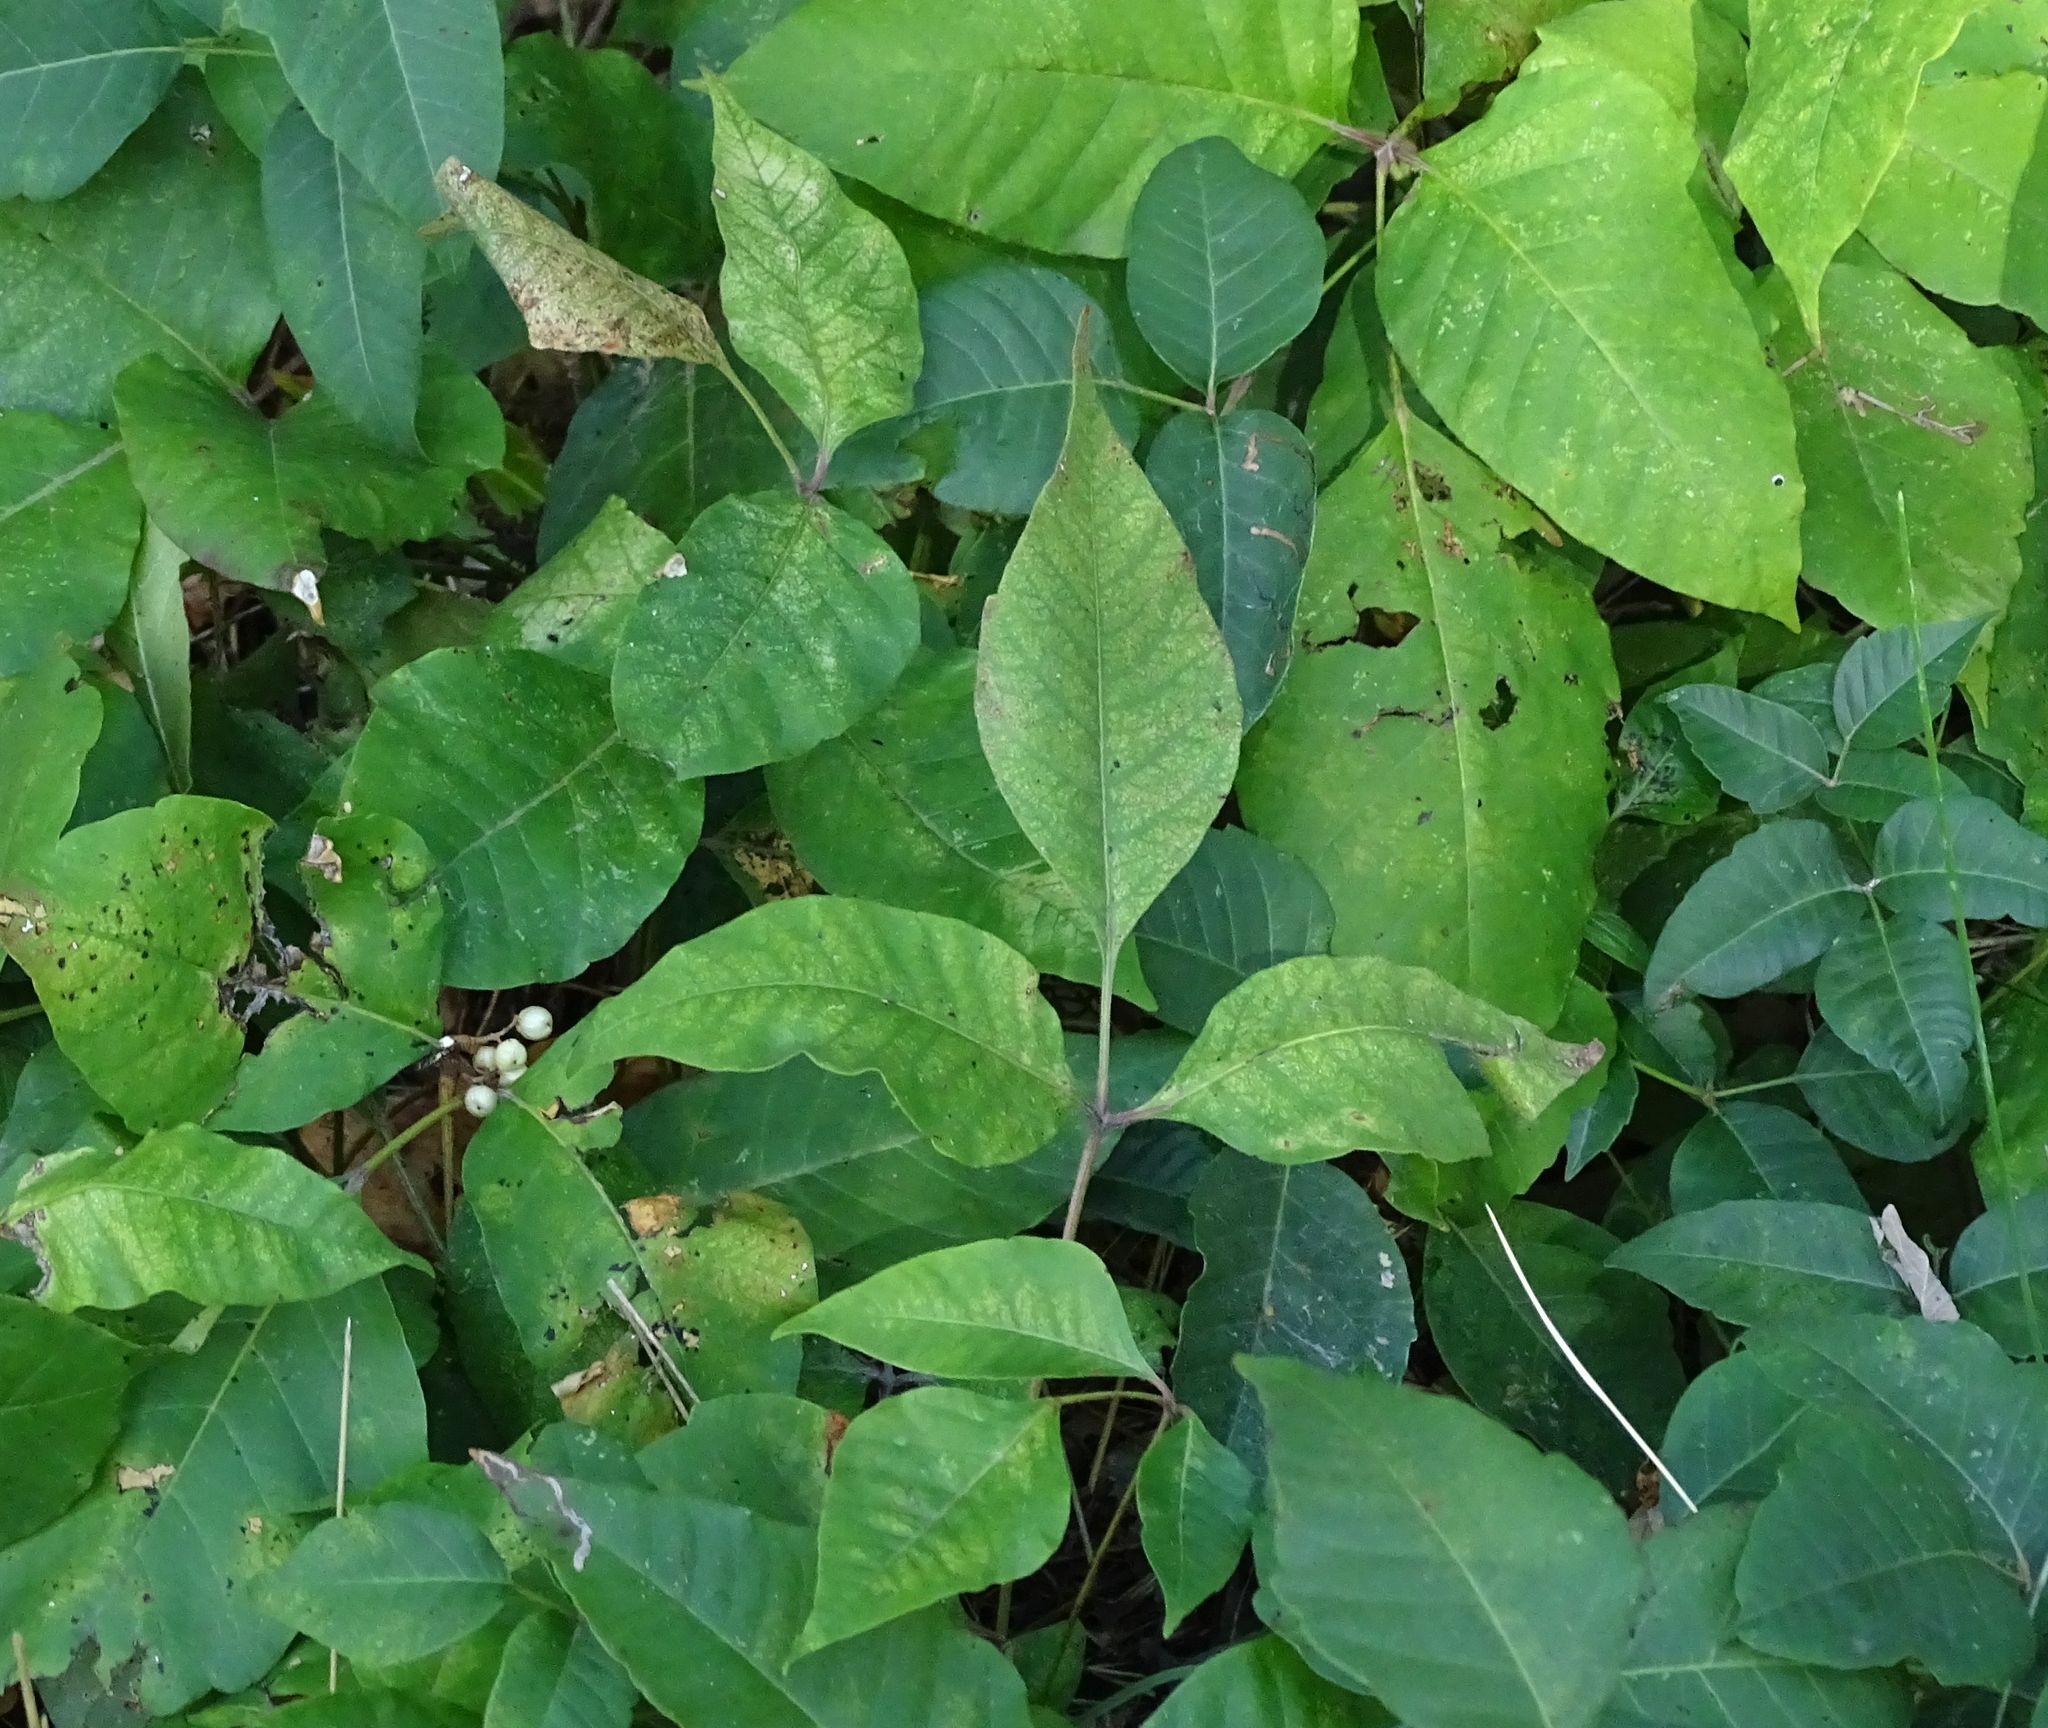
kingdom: Plantae
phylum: Tracheophyta
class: Magnoliopsida
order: Sapindales
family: Anacardiaceae
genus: Toxicodendron
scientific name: Toxicodendron radicans
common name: Poison ivy
